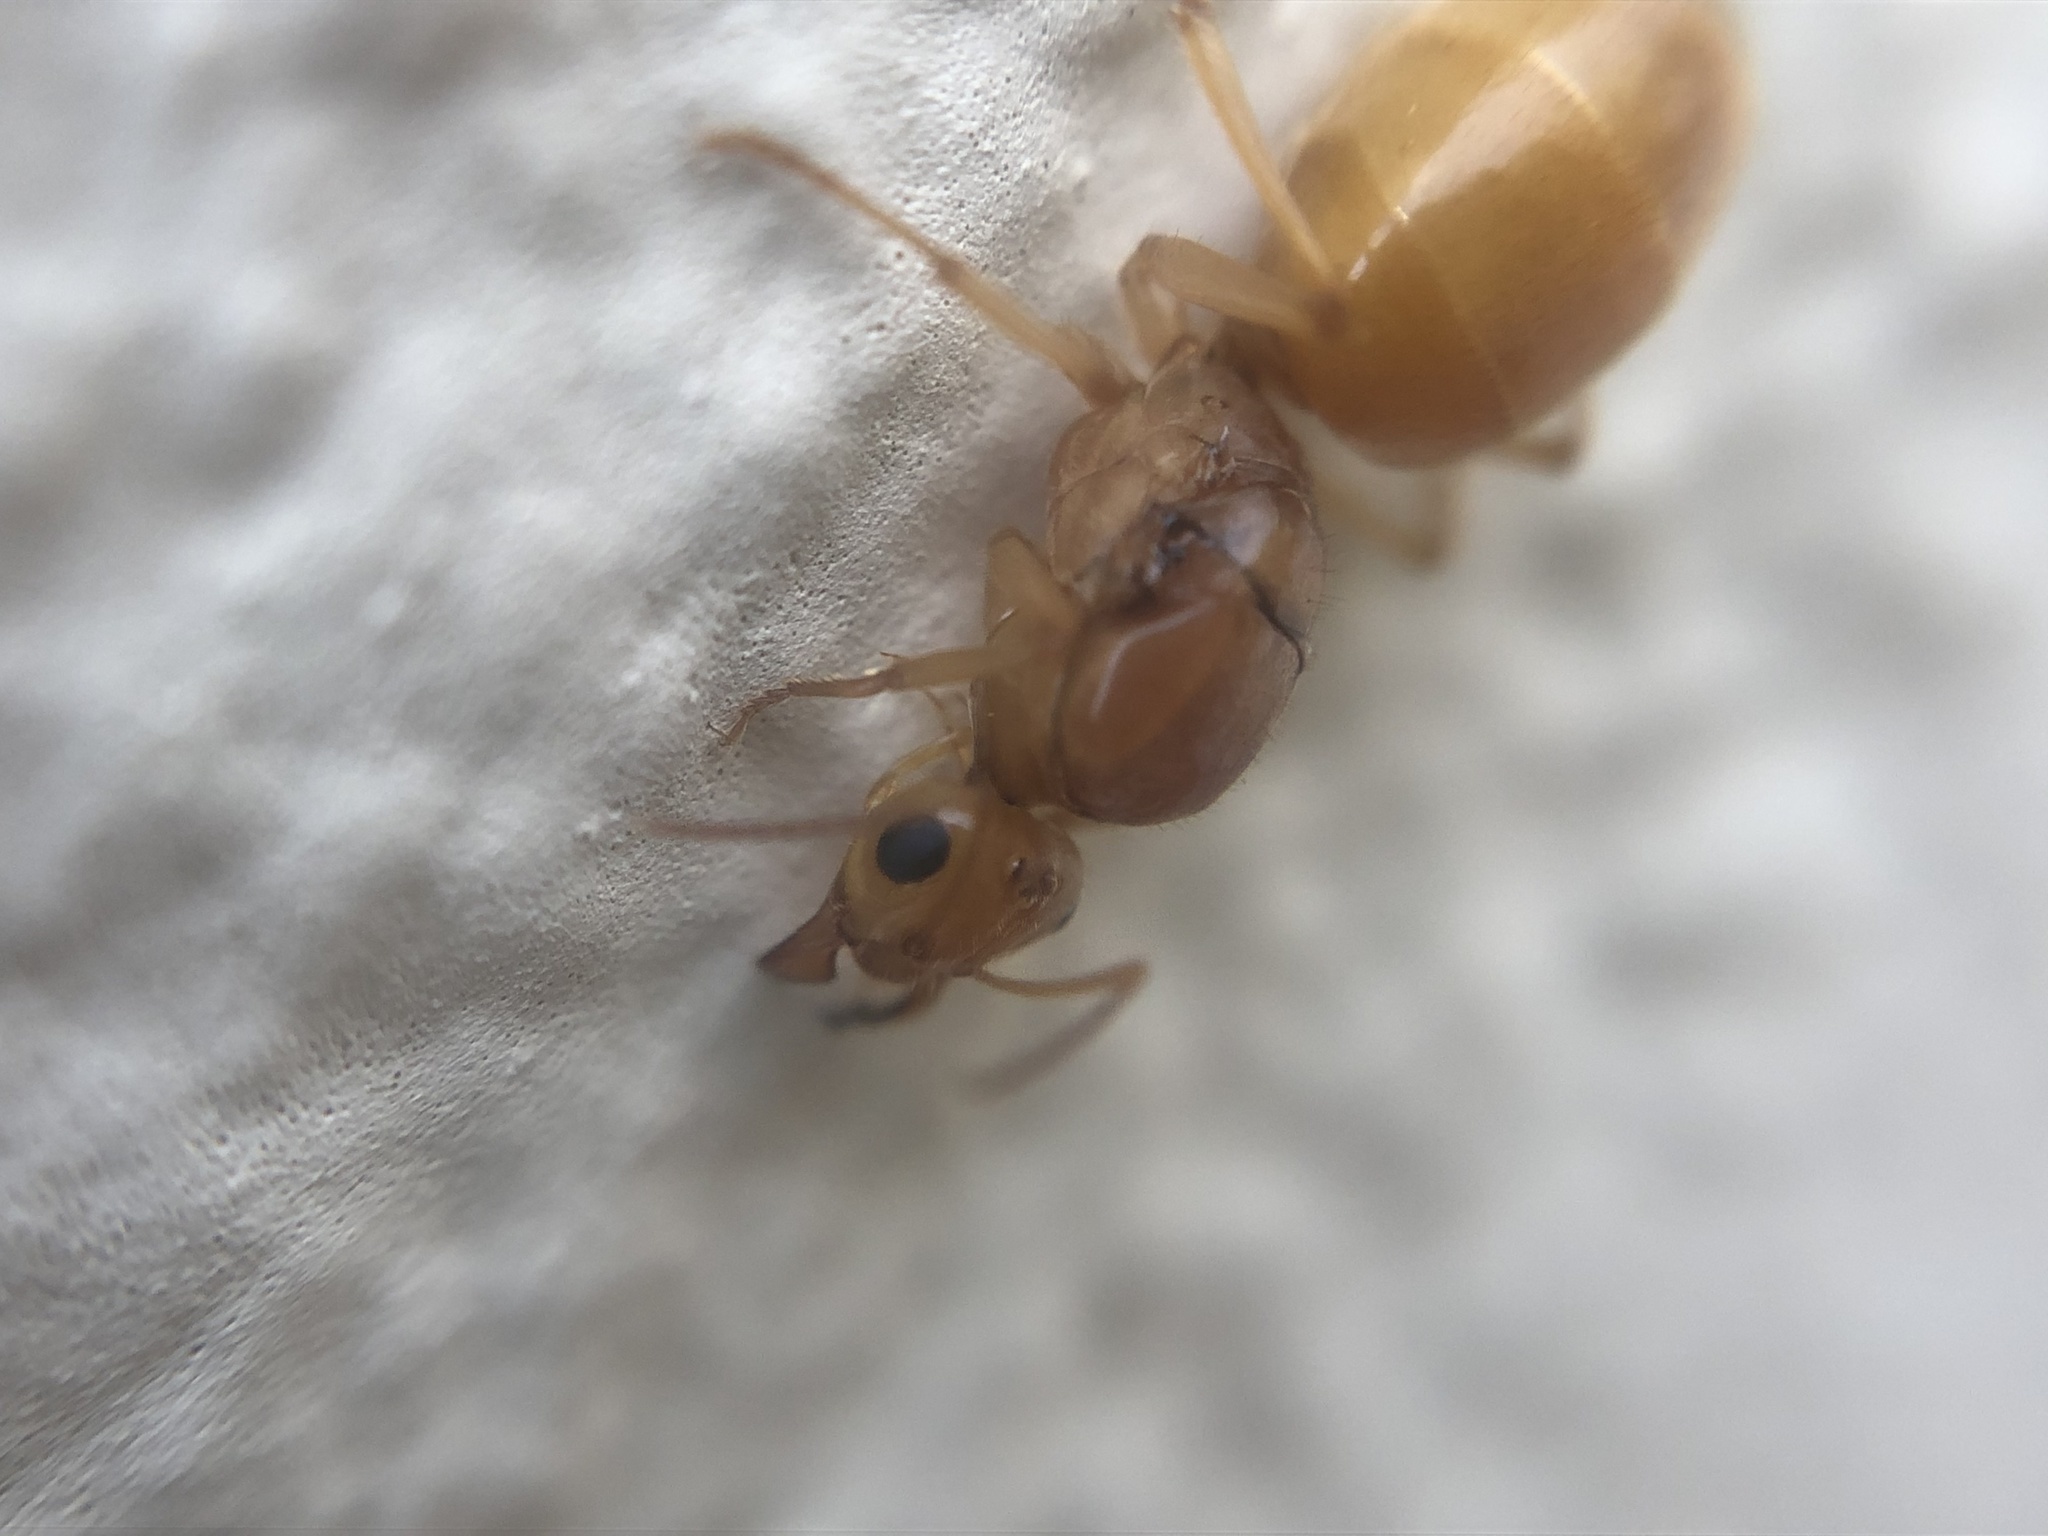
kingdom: Animalia
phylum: Arthropoda
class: Insecta
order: Hymenoptera
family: Formicidae
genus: Myrmecocystus
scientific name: Myrmecocystus mexicanus
